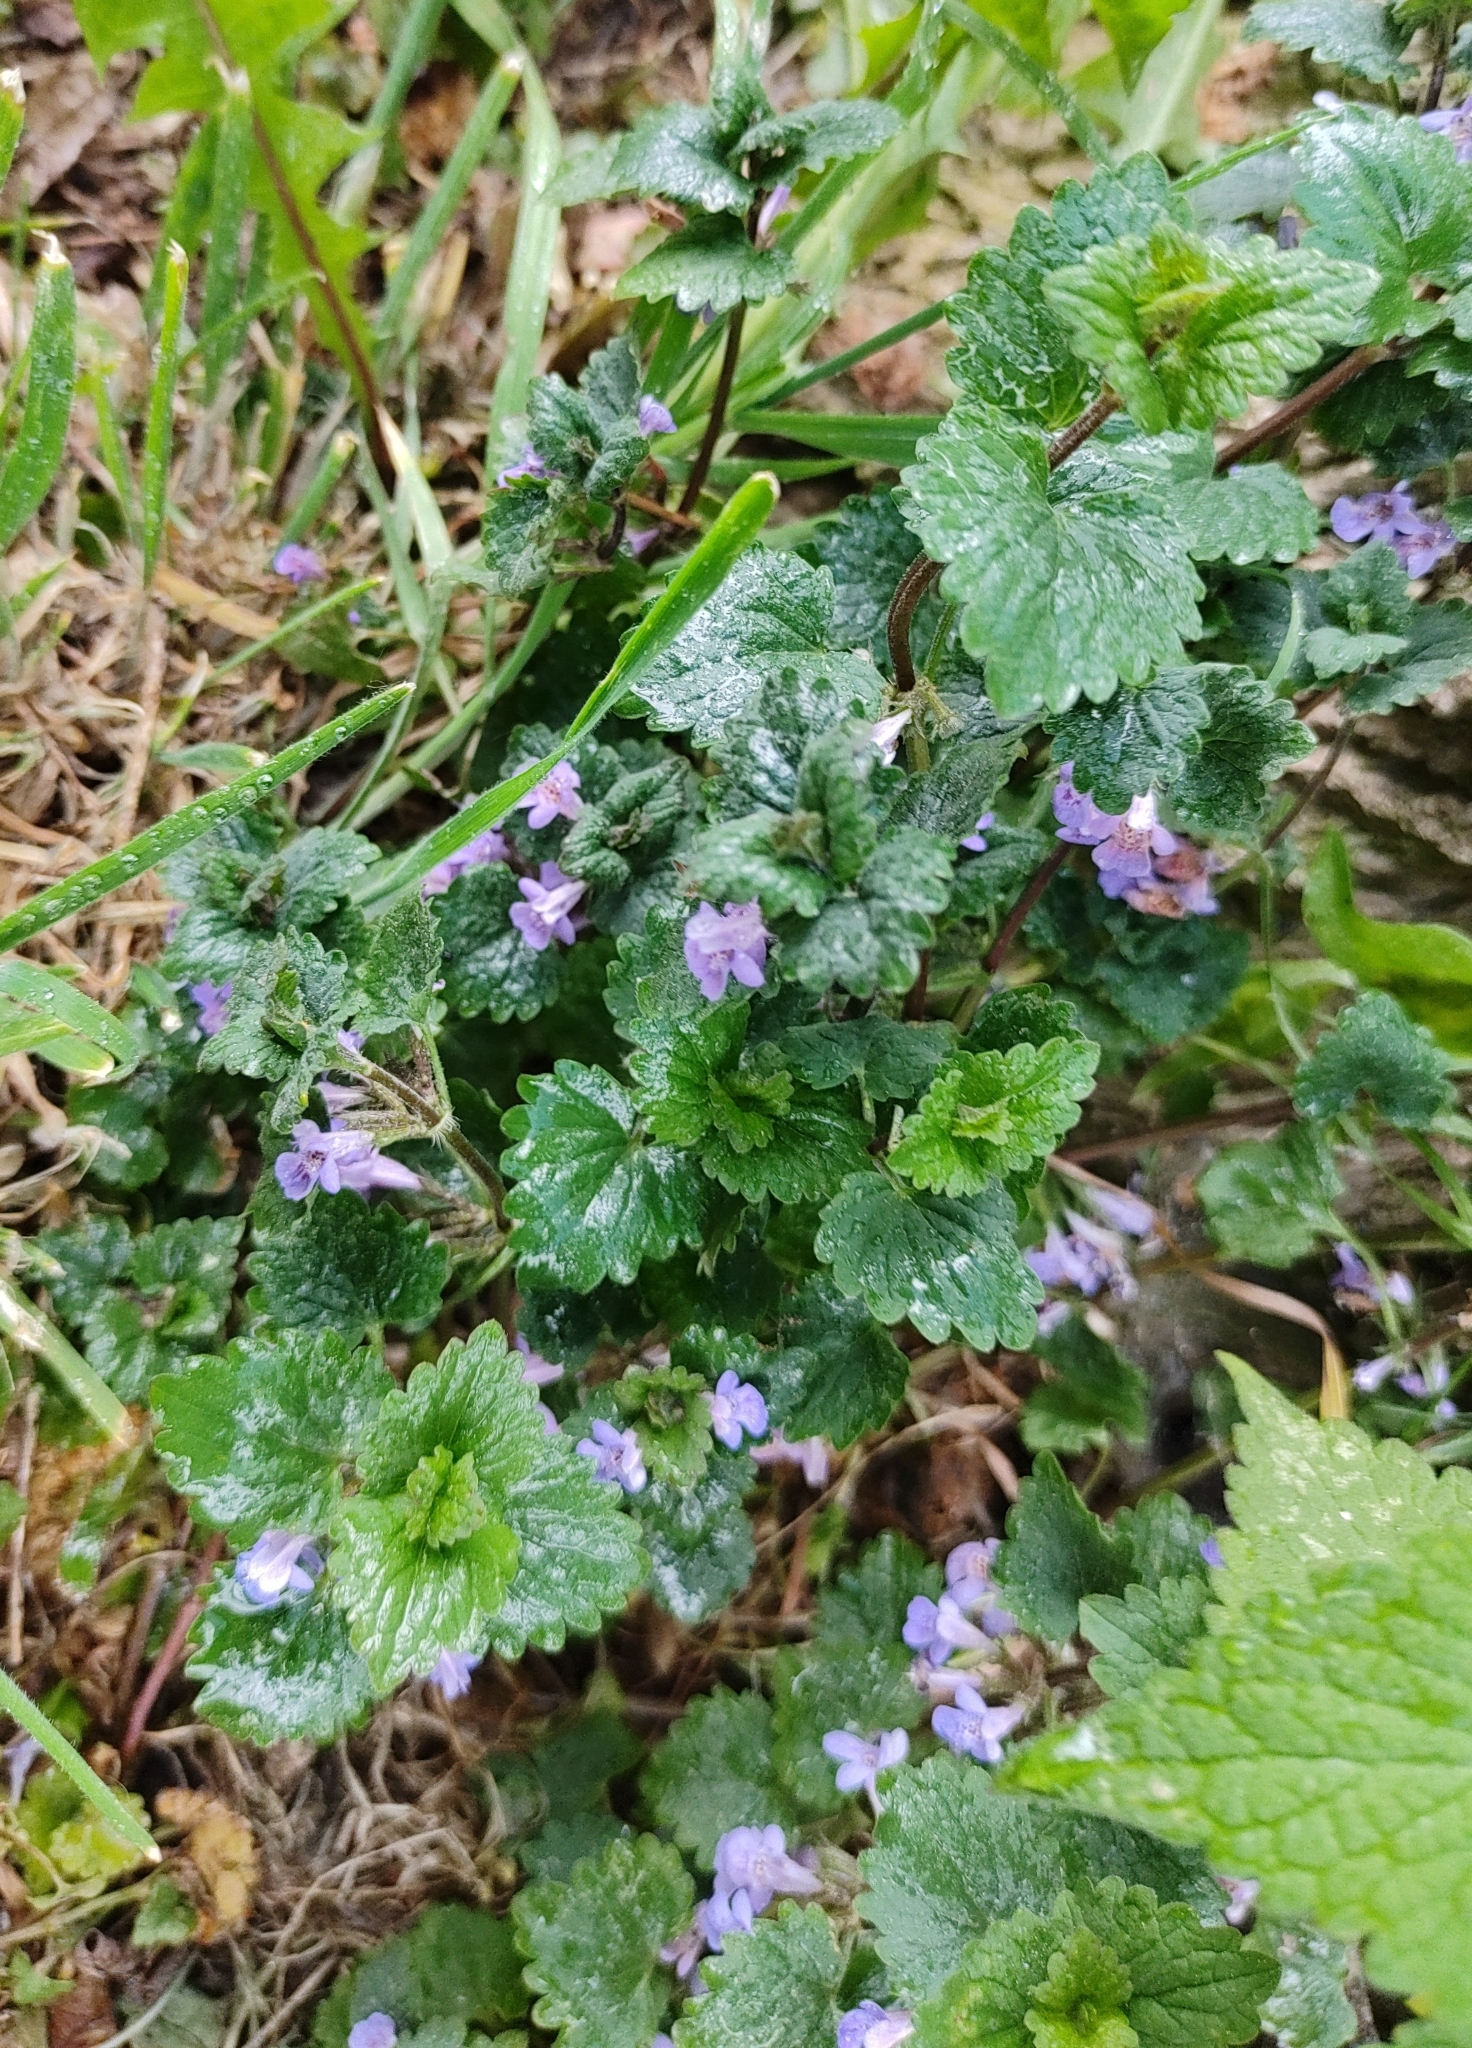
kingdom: Plantae
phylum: Tracheophyta
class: Magnoliopsida
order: Lamiales
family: Lamiaceae
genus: Glechoma
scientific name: Glechoma hederacea
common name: Ground ivy
